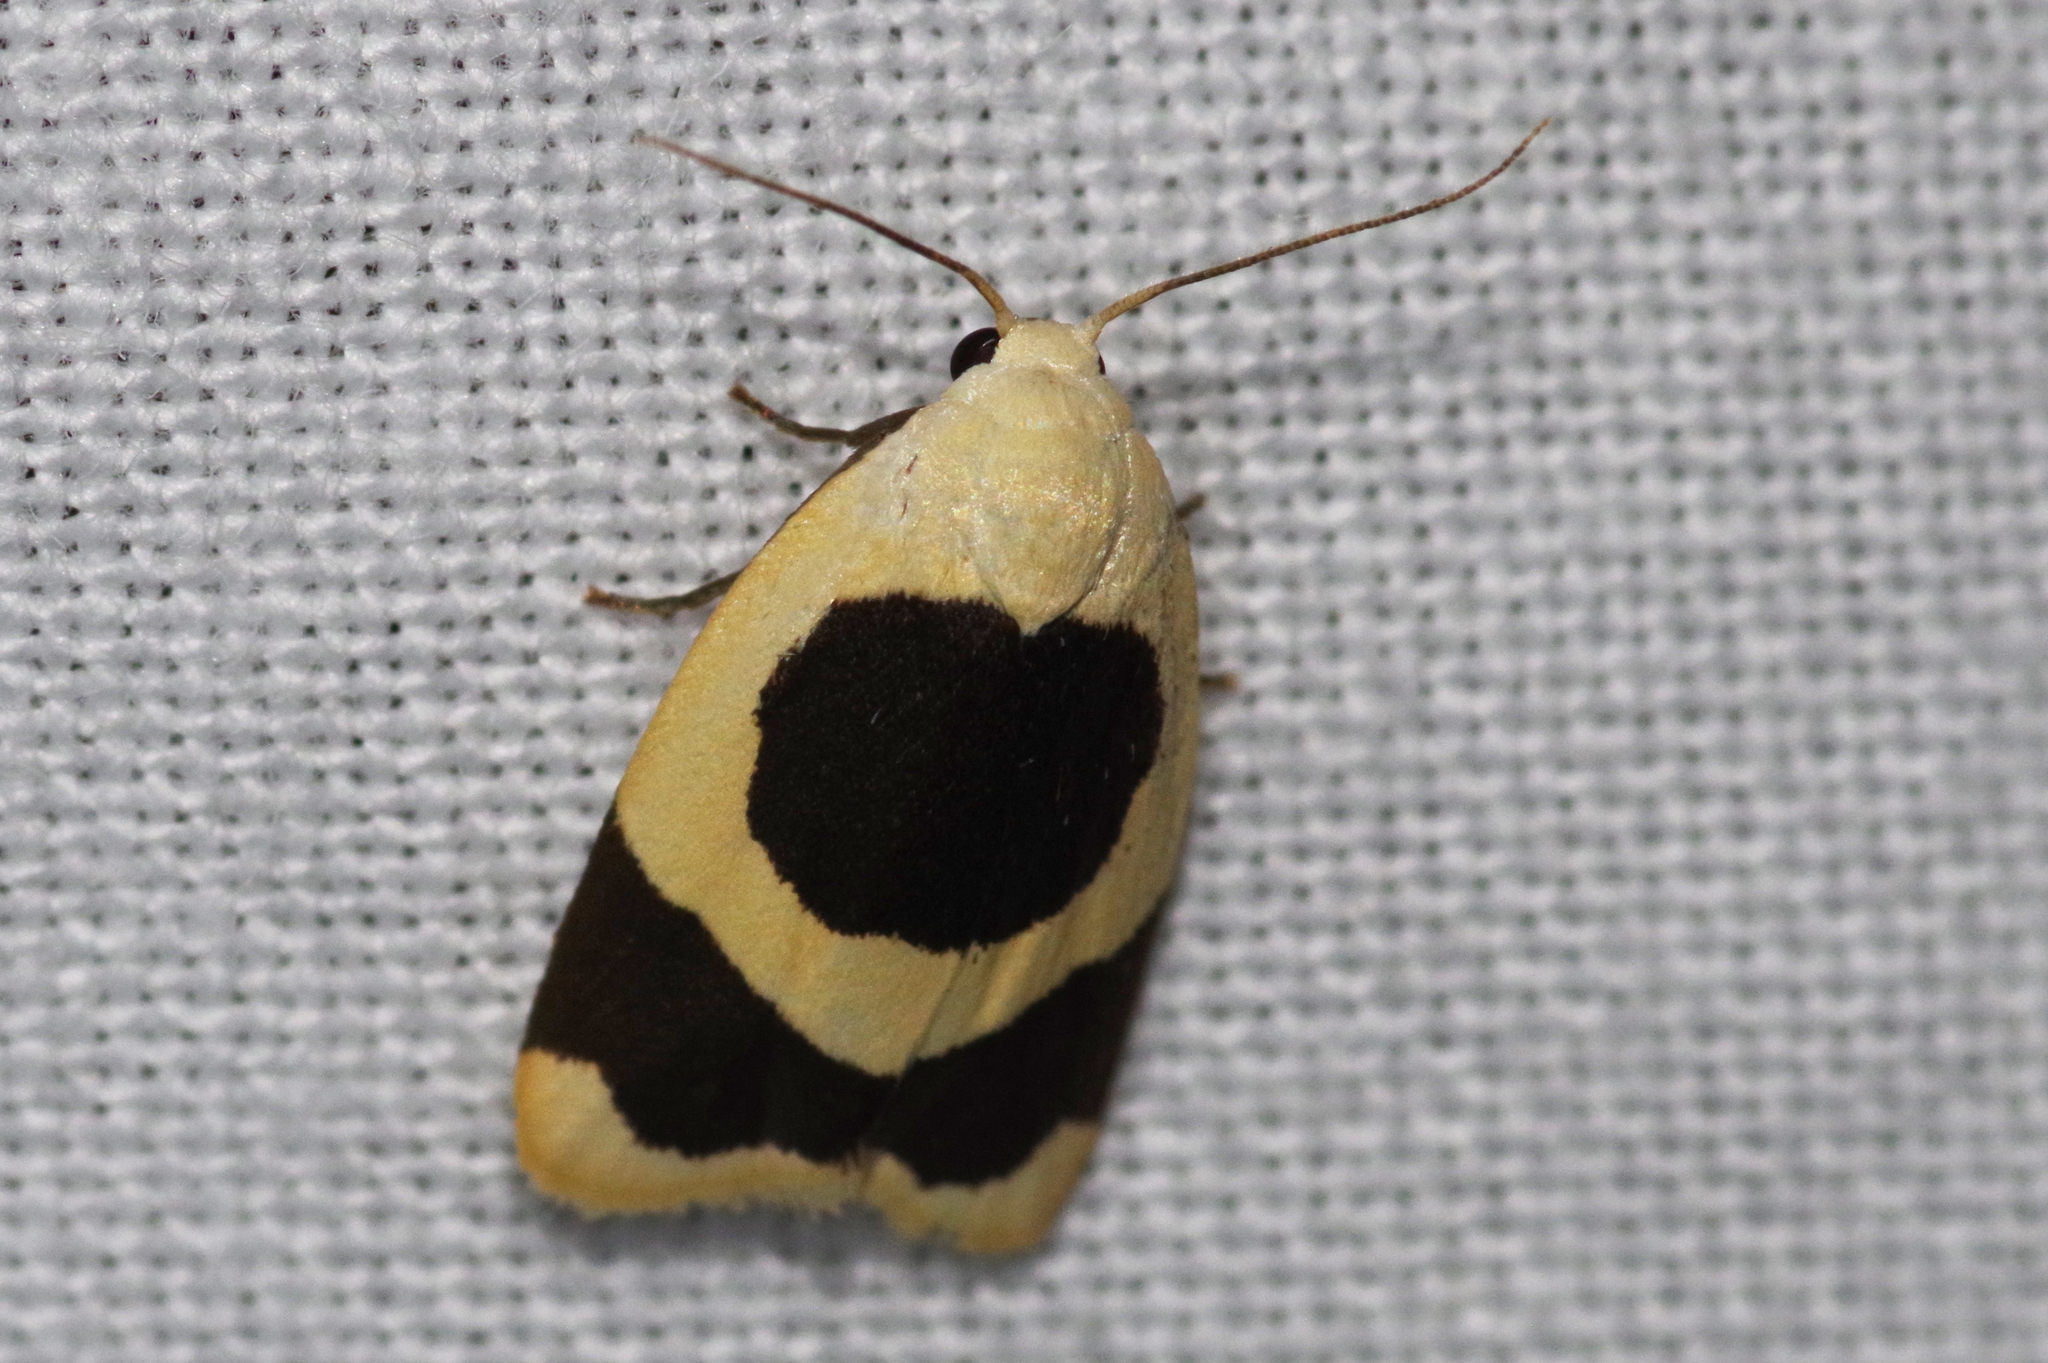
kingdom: Animalia
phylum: Arthropoda
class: Insecta
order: Lepidoptera
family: Erebidae
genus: Garudinia
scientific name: Garudinia bimaculata
